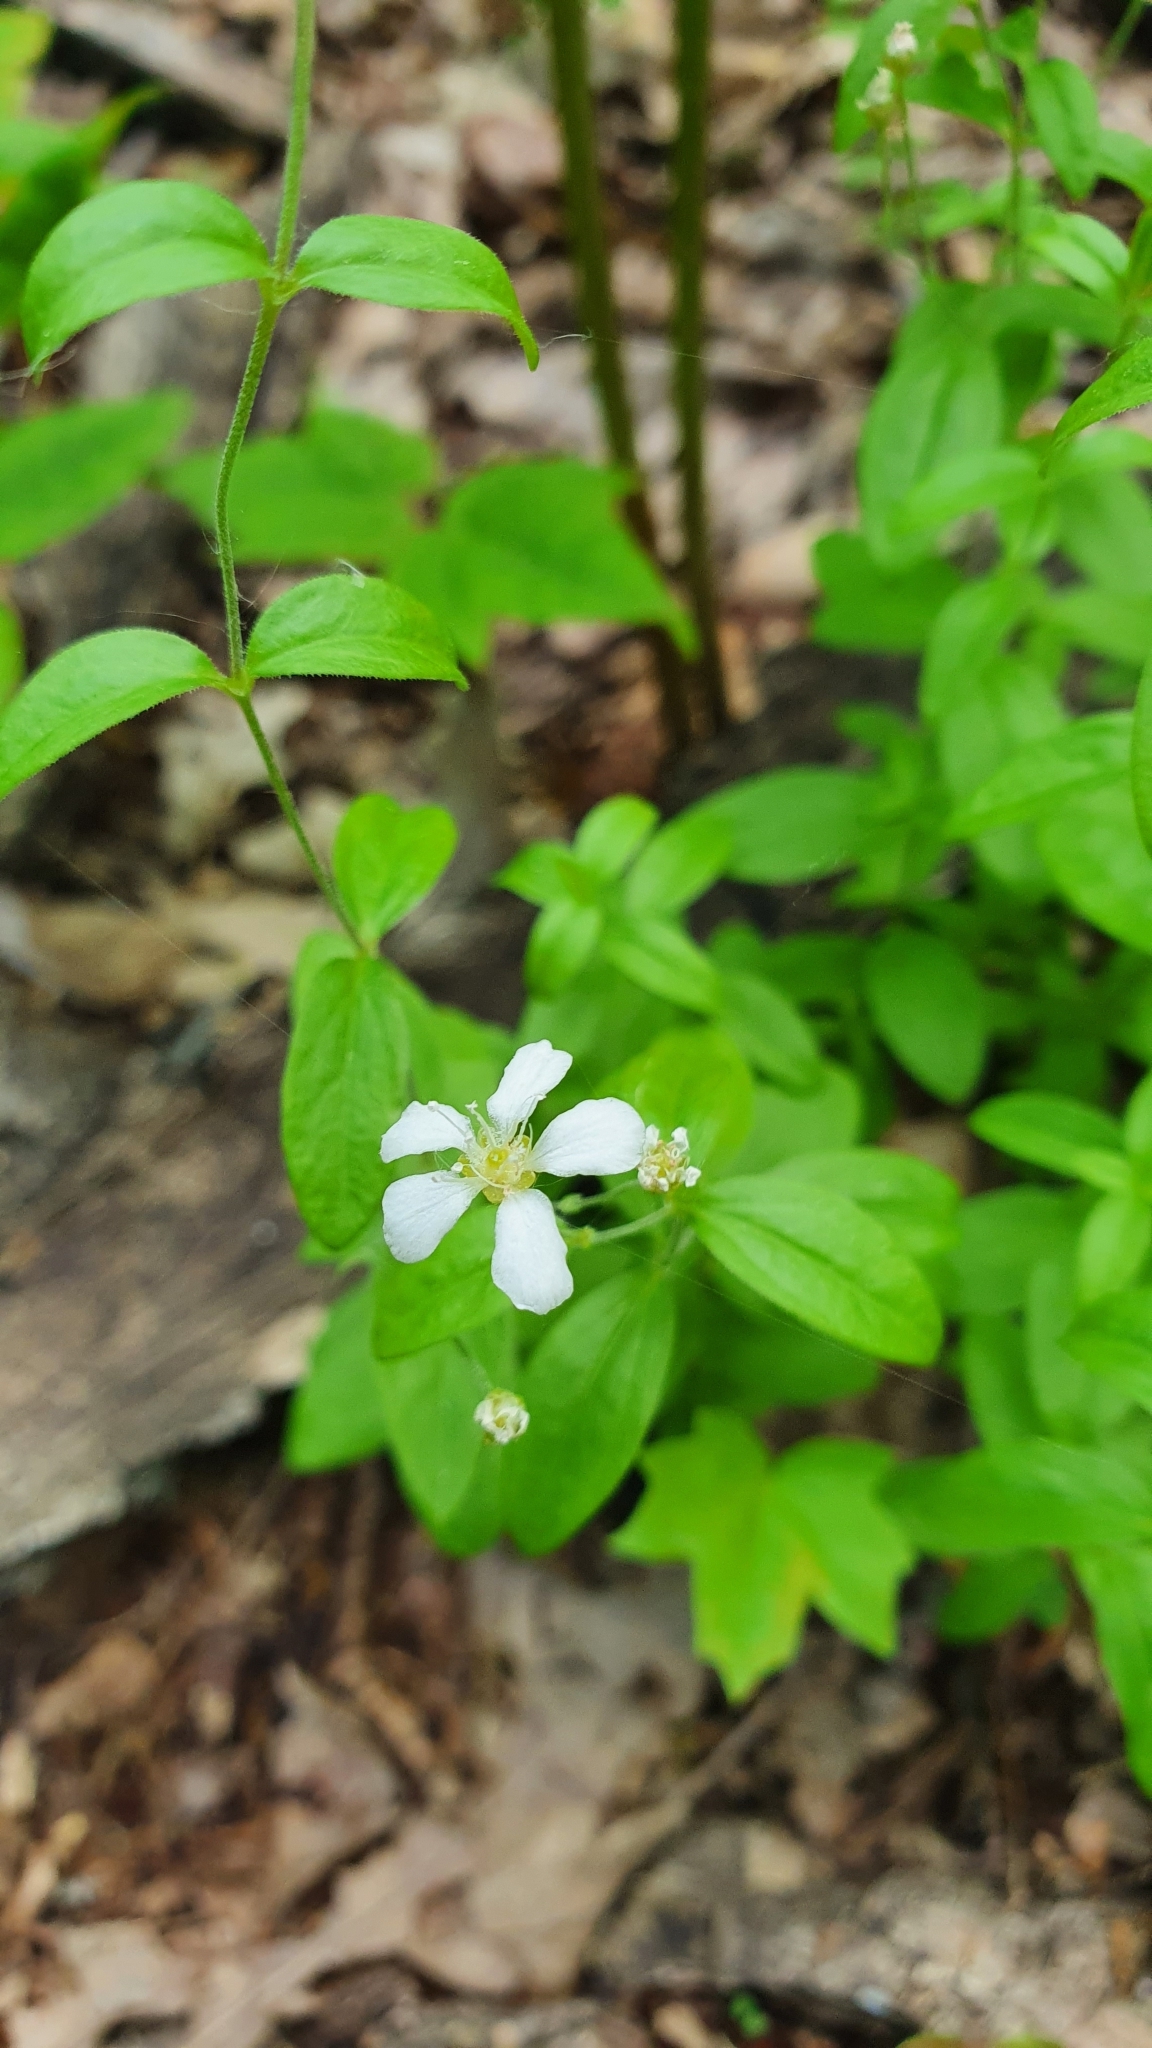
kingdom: Plantae
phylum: Tracheophyta
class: Magnoliopsida
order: Caryophyllales
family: Caryophyllaceae
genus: Moehringia
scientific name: Moehringia lateriflora
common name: Blunt-leaved sandwort
